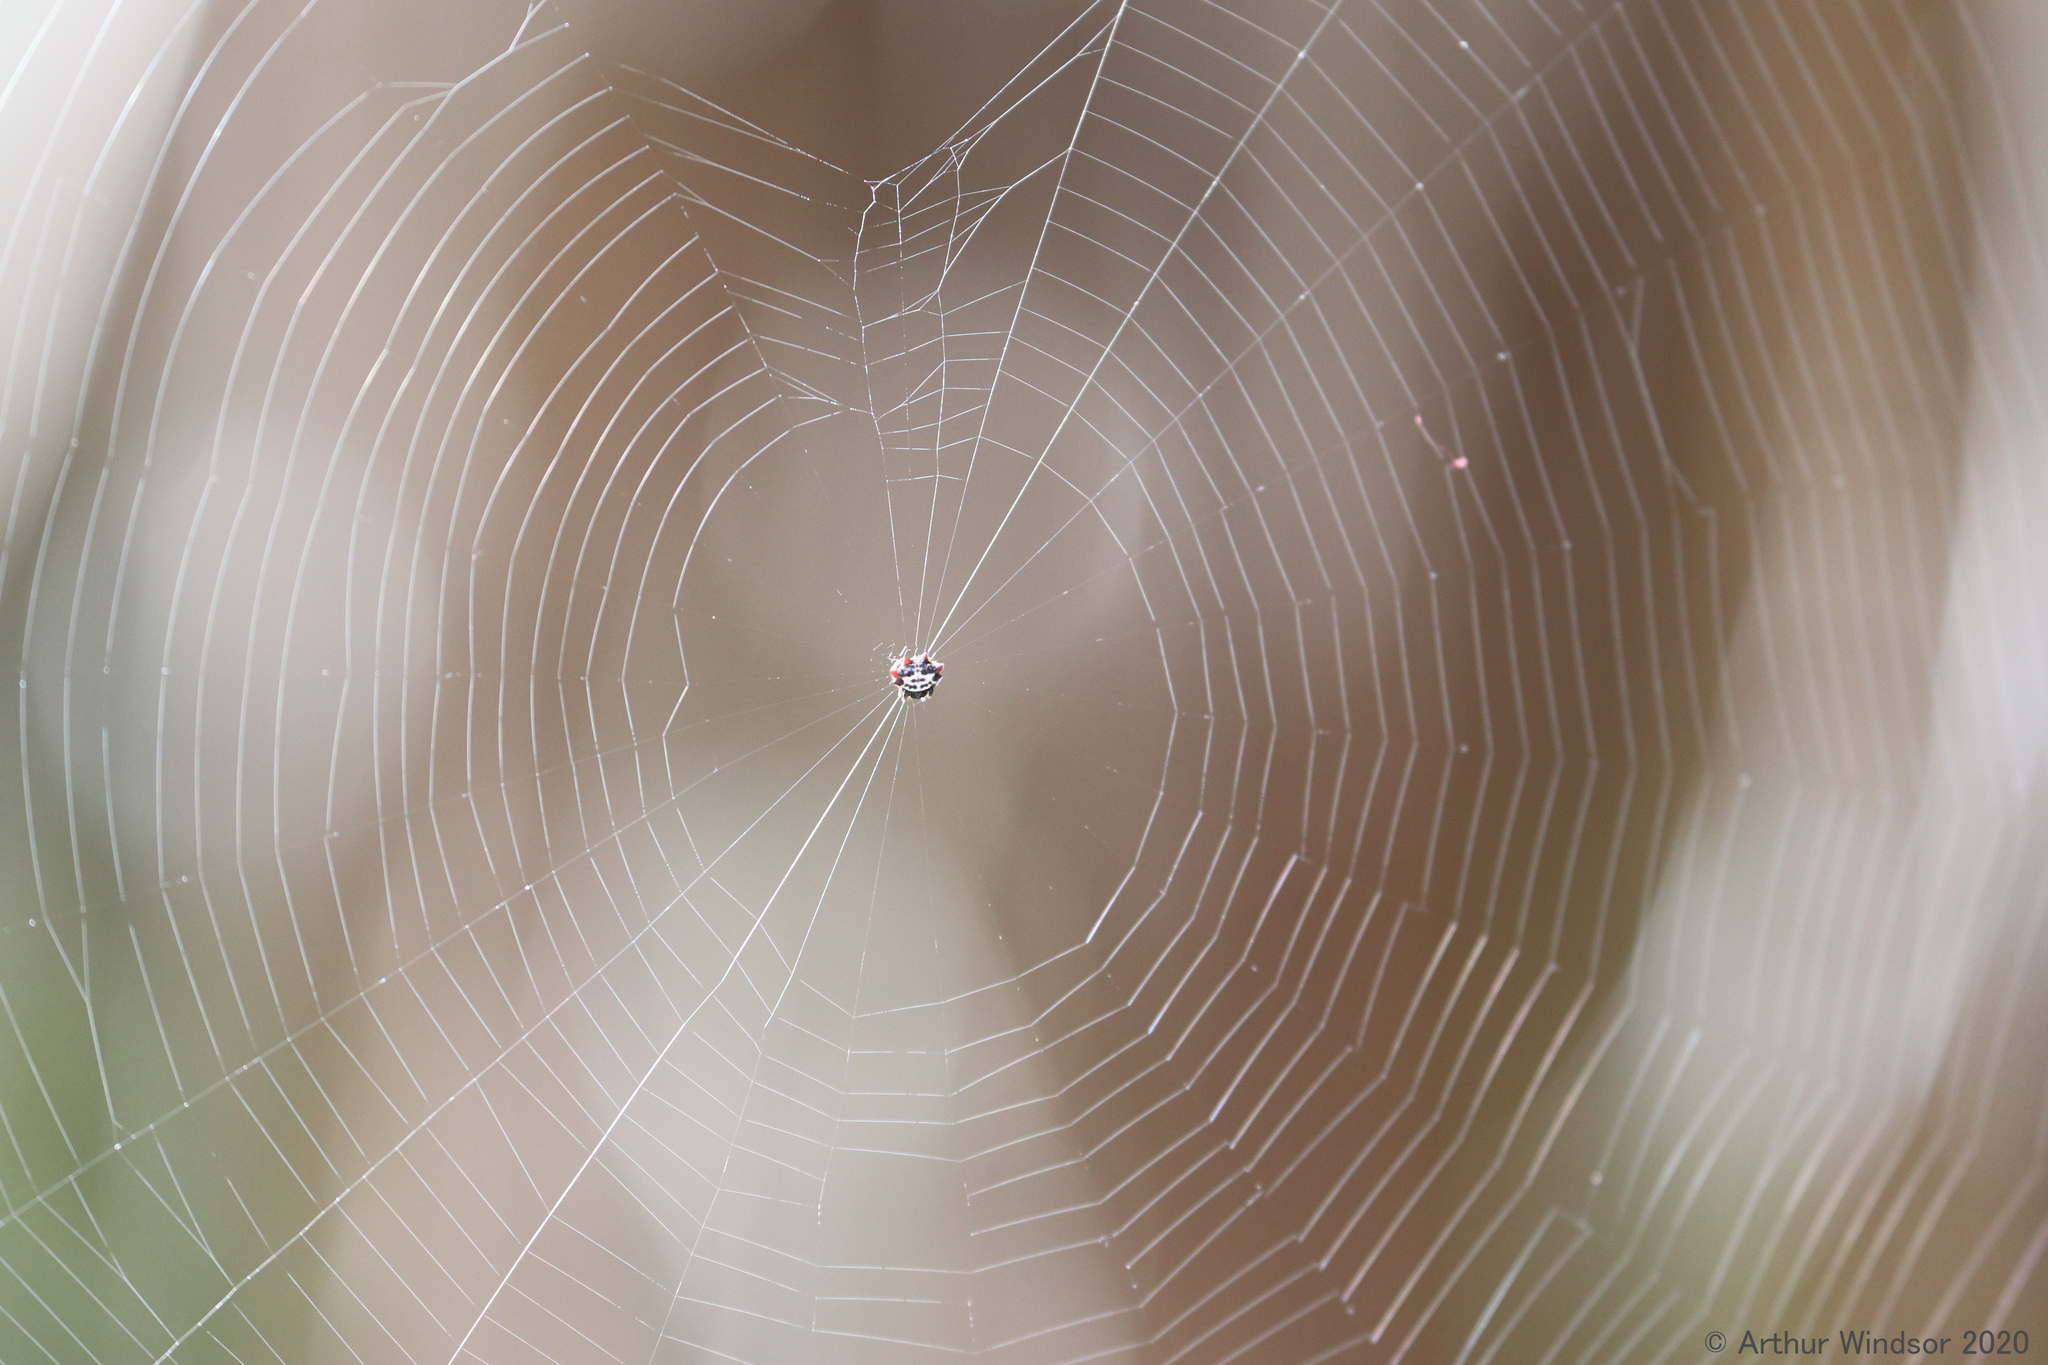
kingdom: Animalia
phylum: Arthropoda
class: Arachnida
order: Araneae
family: Araneidae
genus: Gasteracantha
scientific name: Gasteracantha cancriformis
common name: Orb weavers
